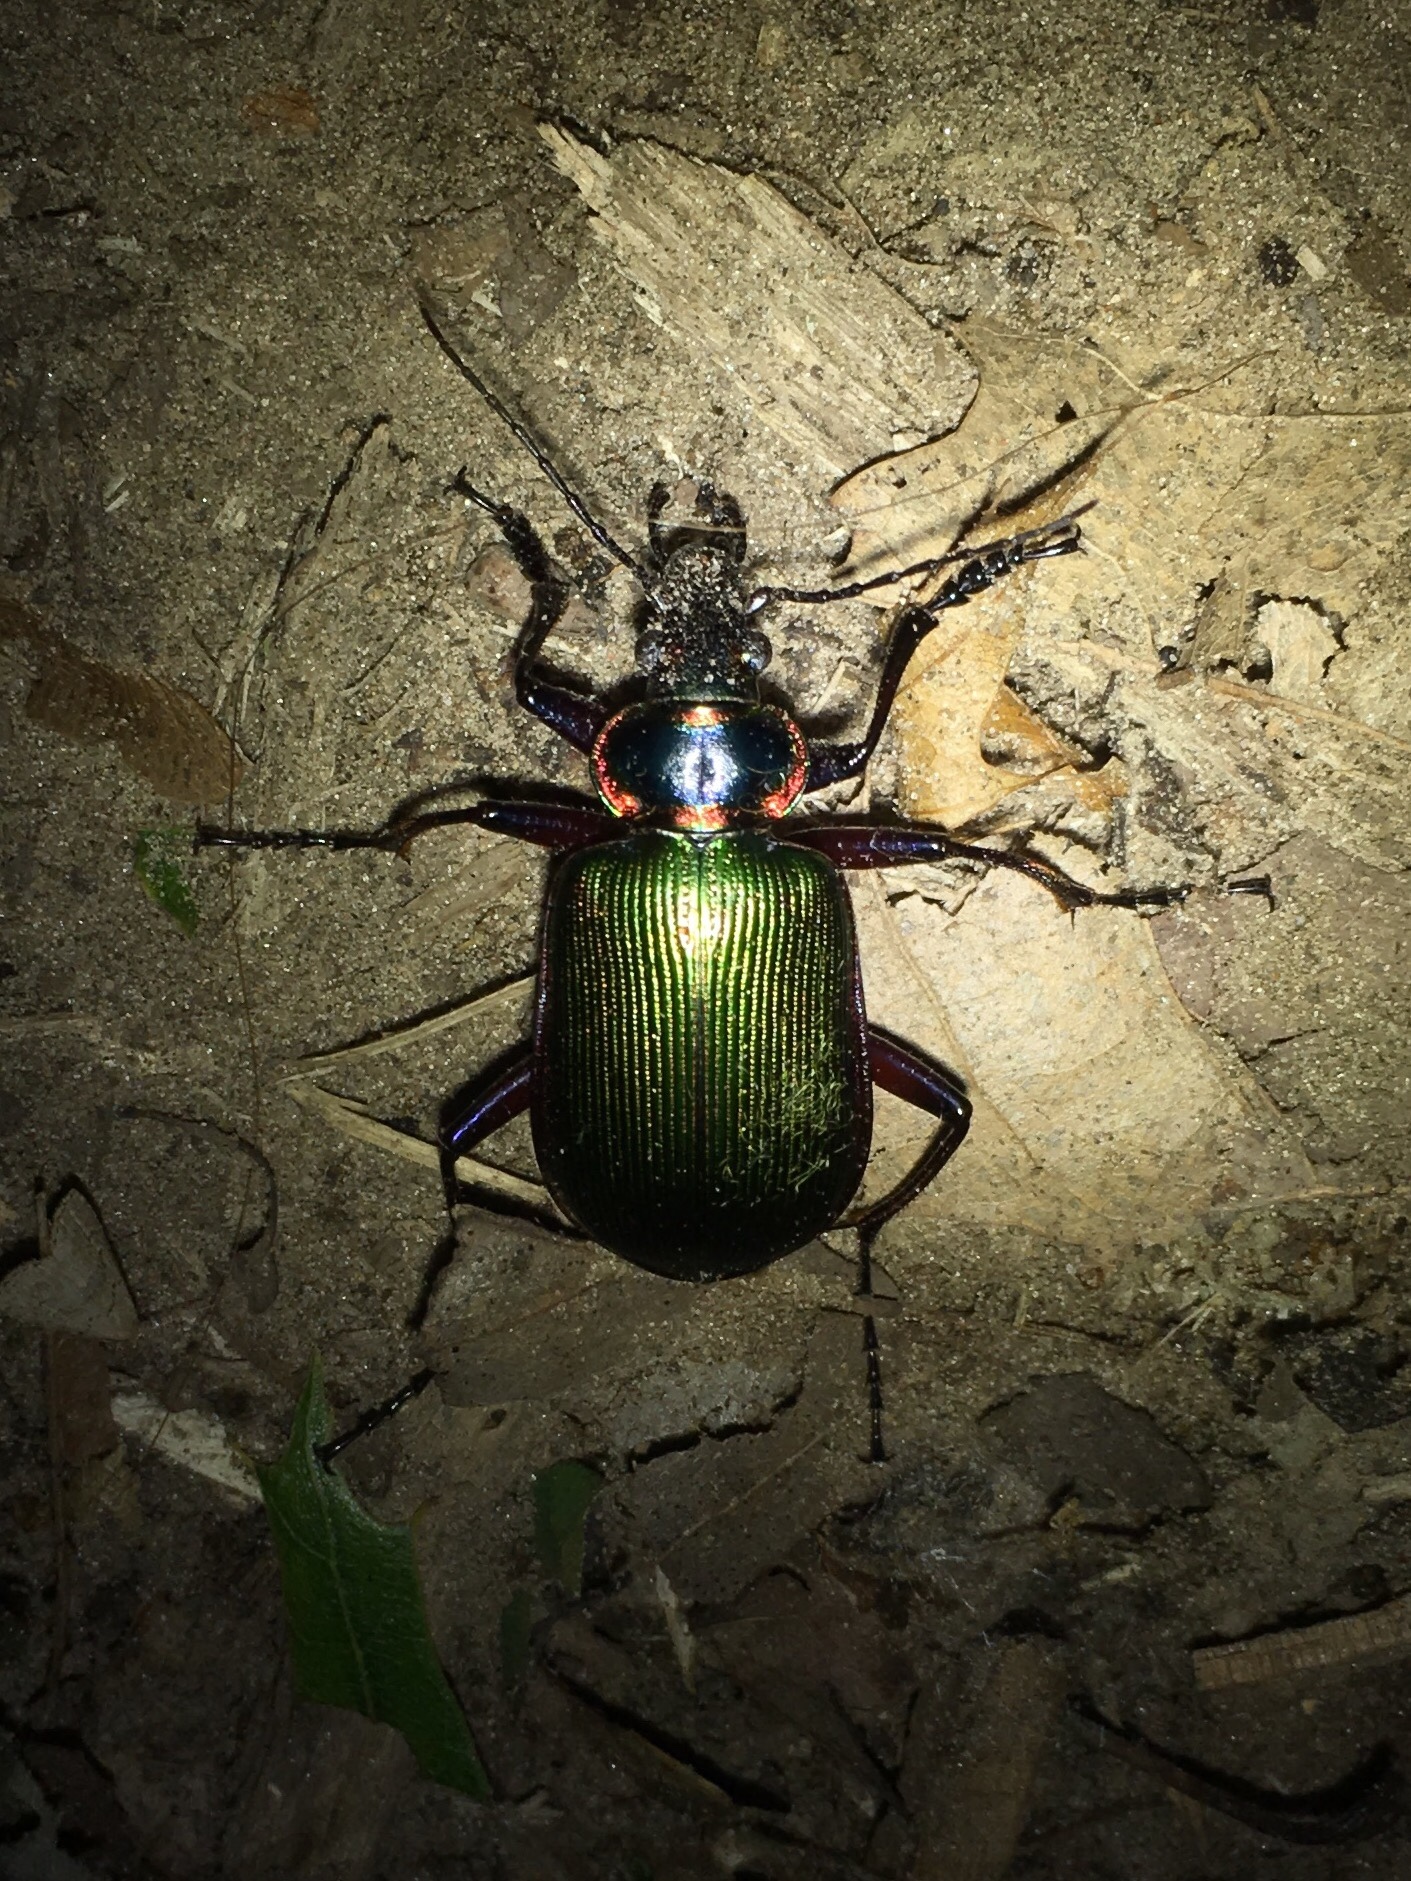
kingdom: Animalia
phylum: Arthropoda
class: Insecta
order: Coleoptera
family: Carabidae
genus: Calosoma
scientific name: Calosoma scrutator
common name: Fiery searcher beetle
